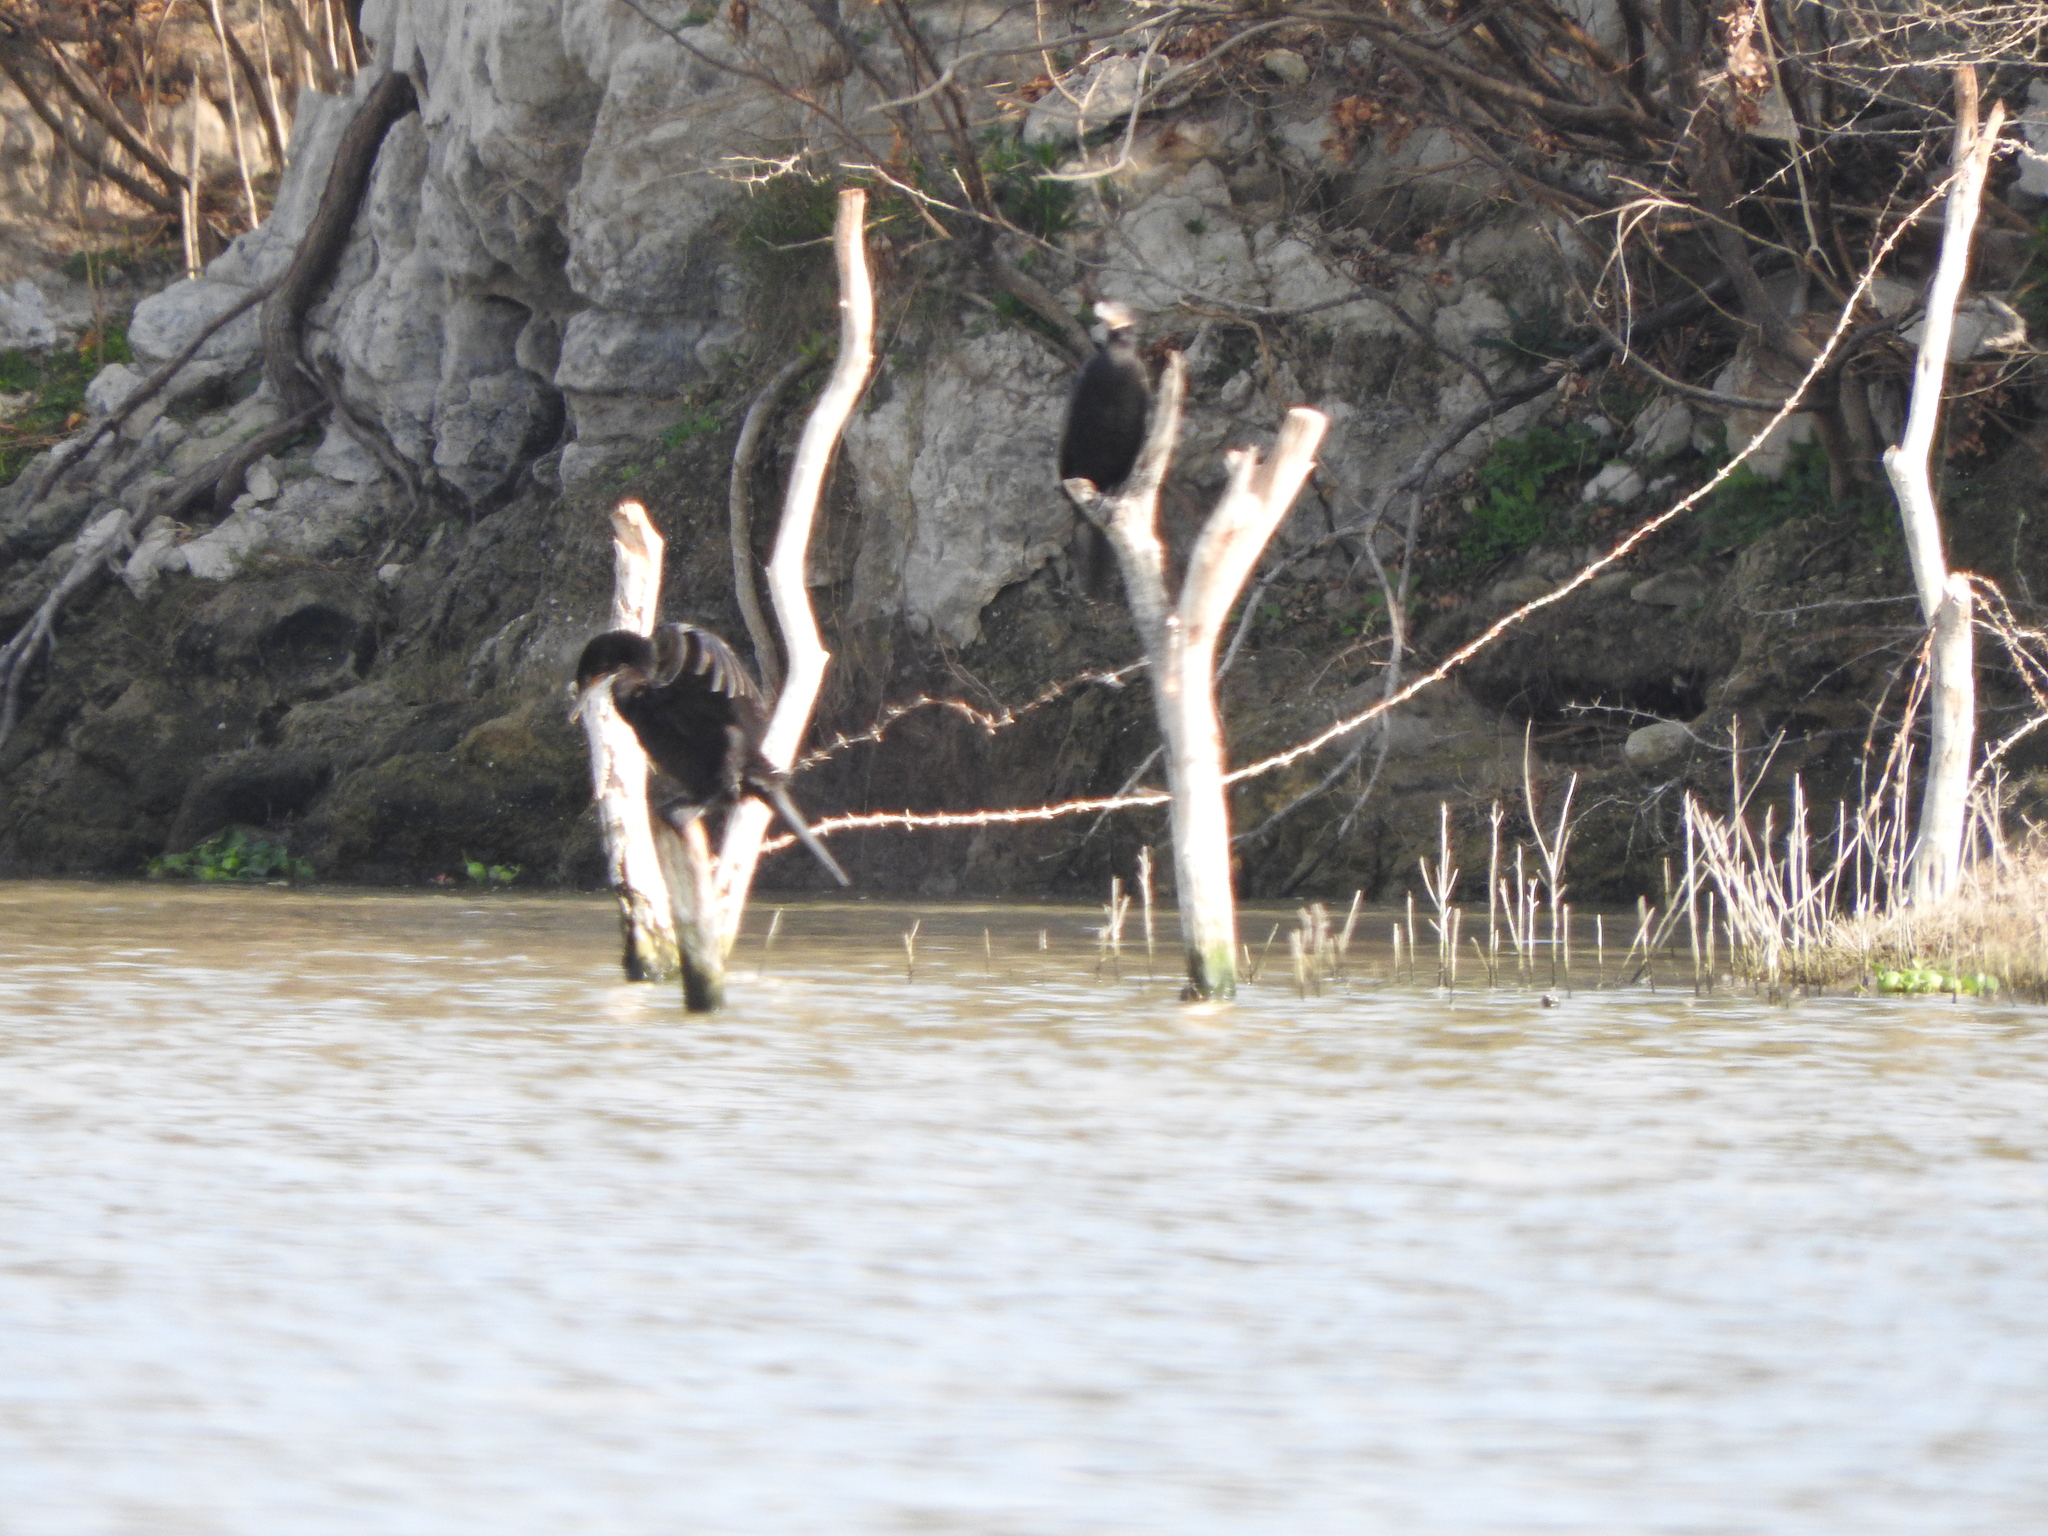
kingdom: Animalia
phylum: Chordata
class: Aves
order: Suliformes
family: Phalacrocoracidae
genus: Phalacrocorax
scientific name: Phalacrocorax brasilianus
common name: Neotropic cormorant
